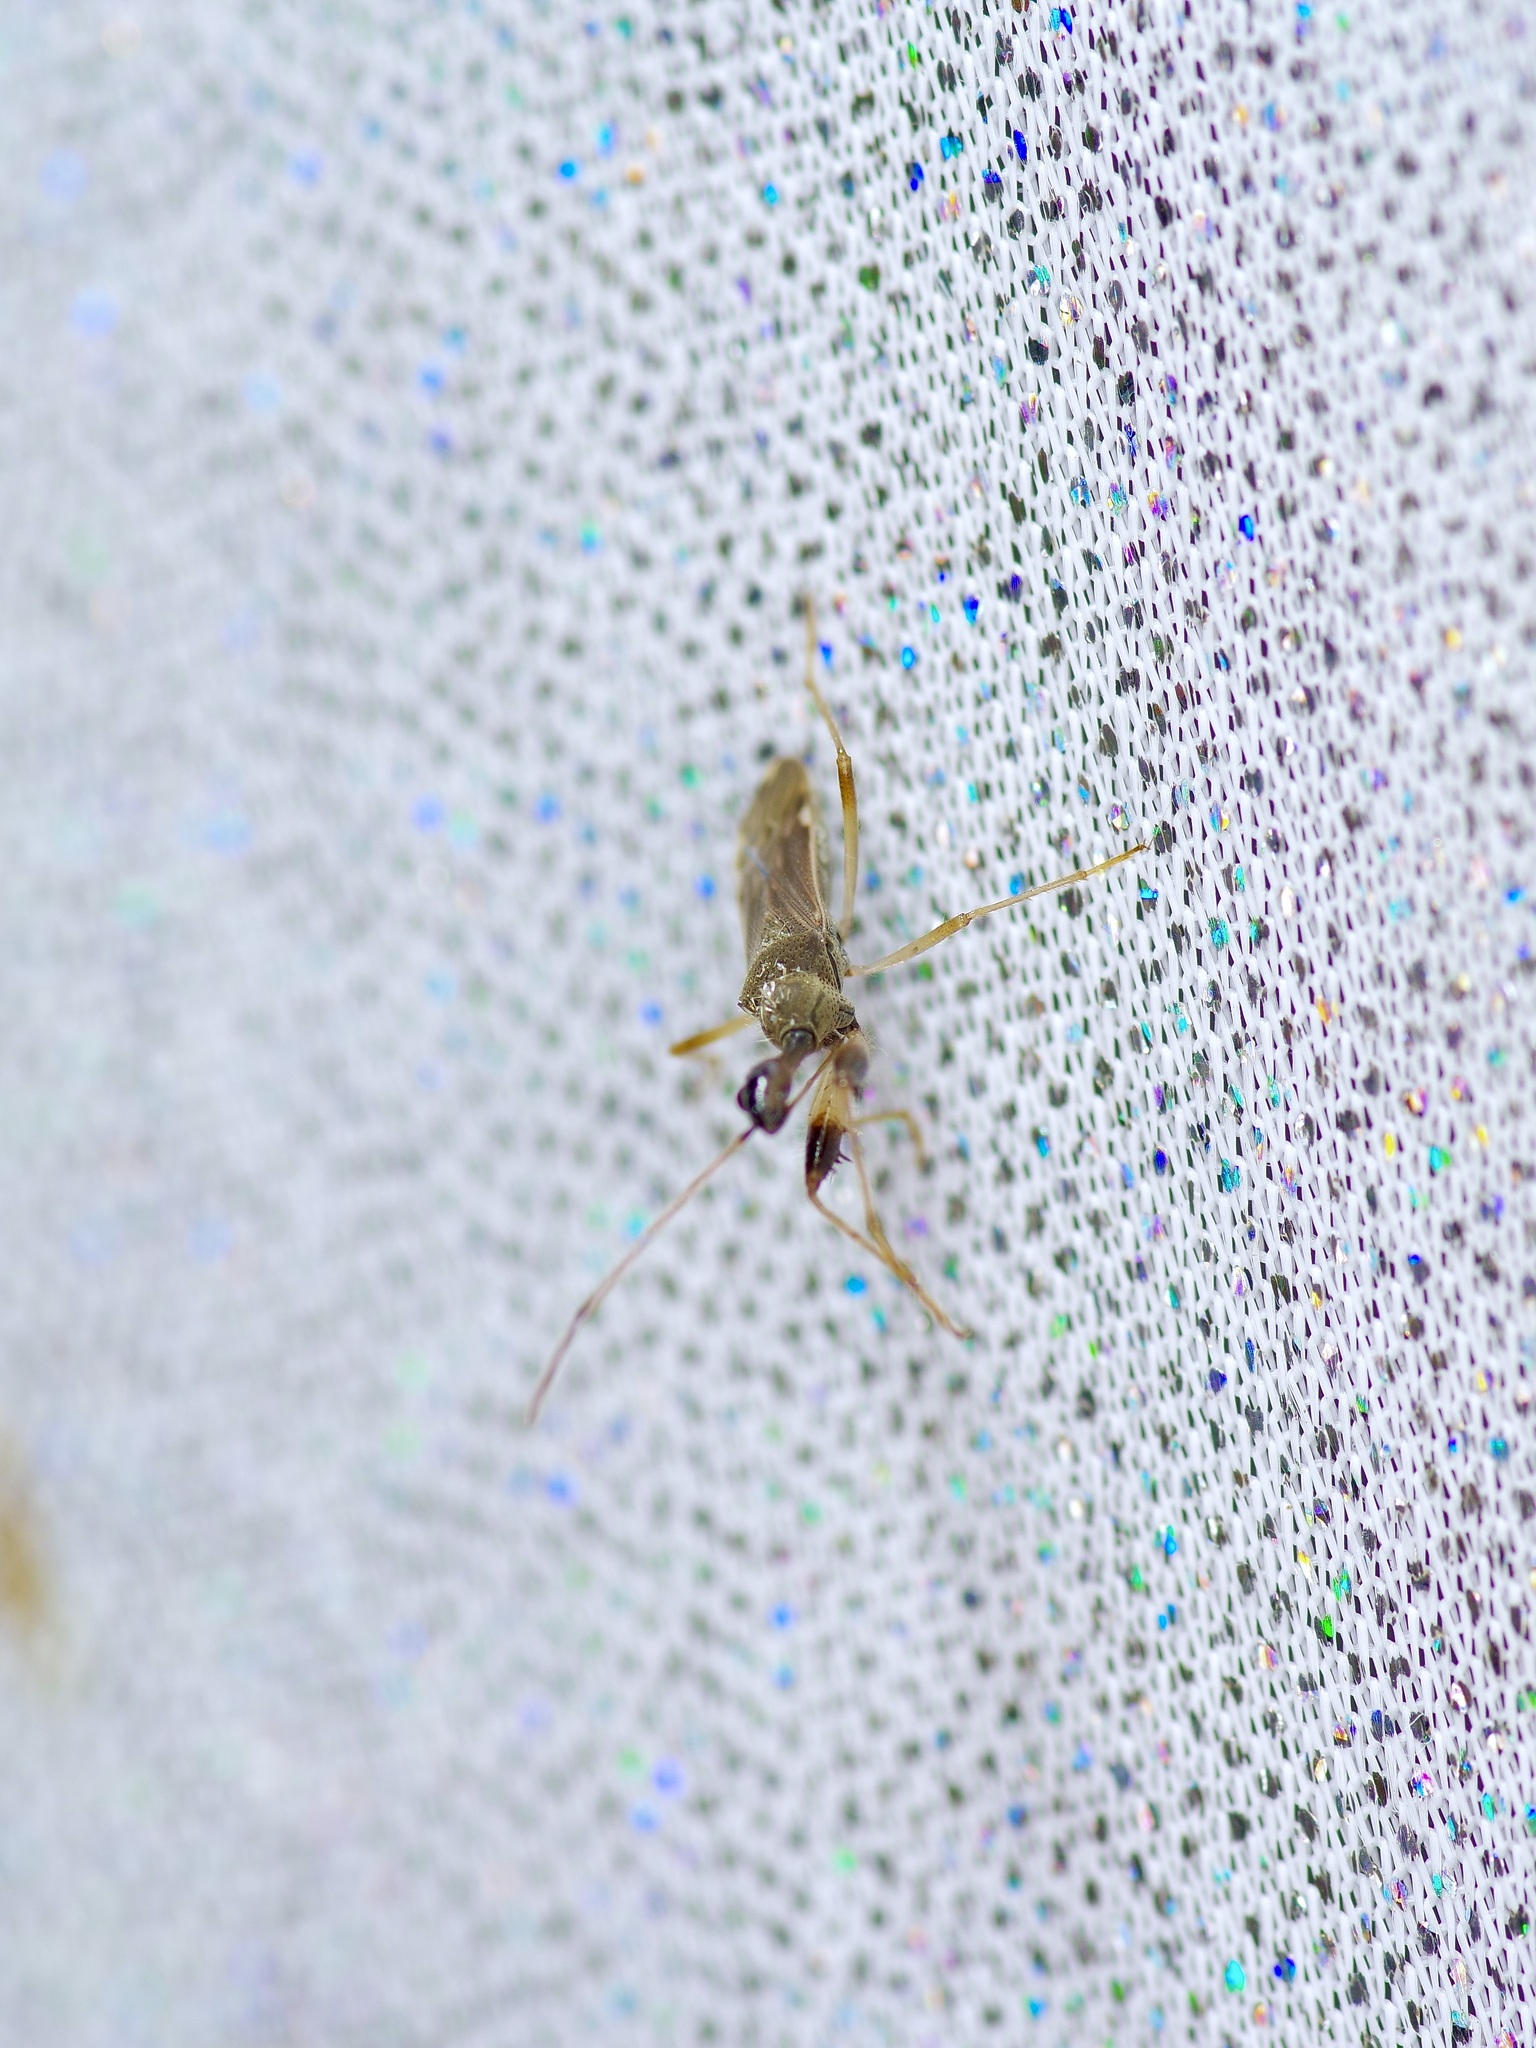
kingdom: Animalia
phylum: Arthropoda
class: Insecta
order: Hemiptera
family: Rhyparochromidae
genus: Myodocha
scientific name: Myodocha serripes
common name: Long-necked seed bug
